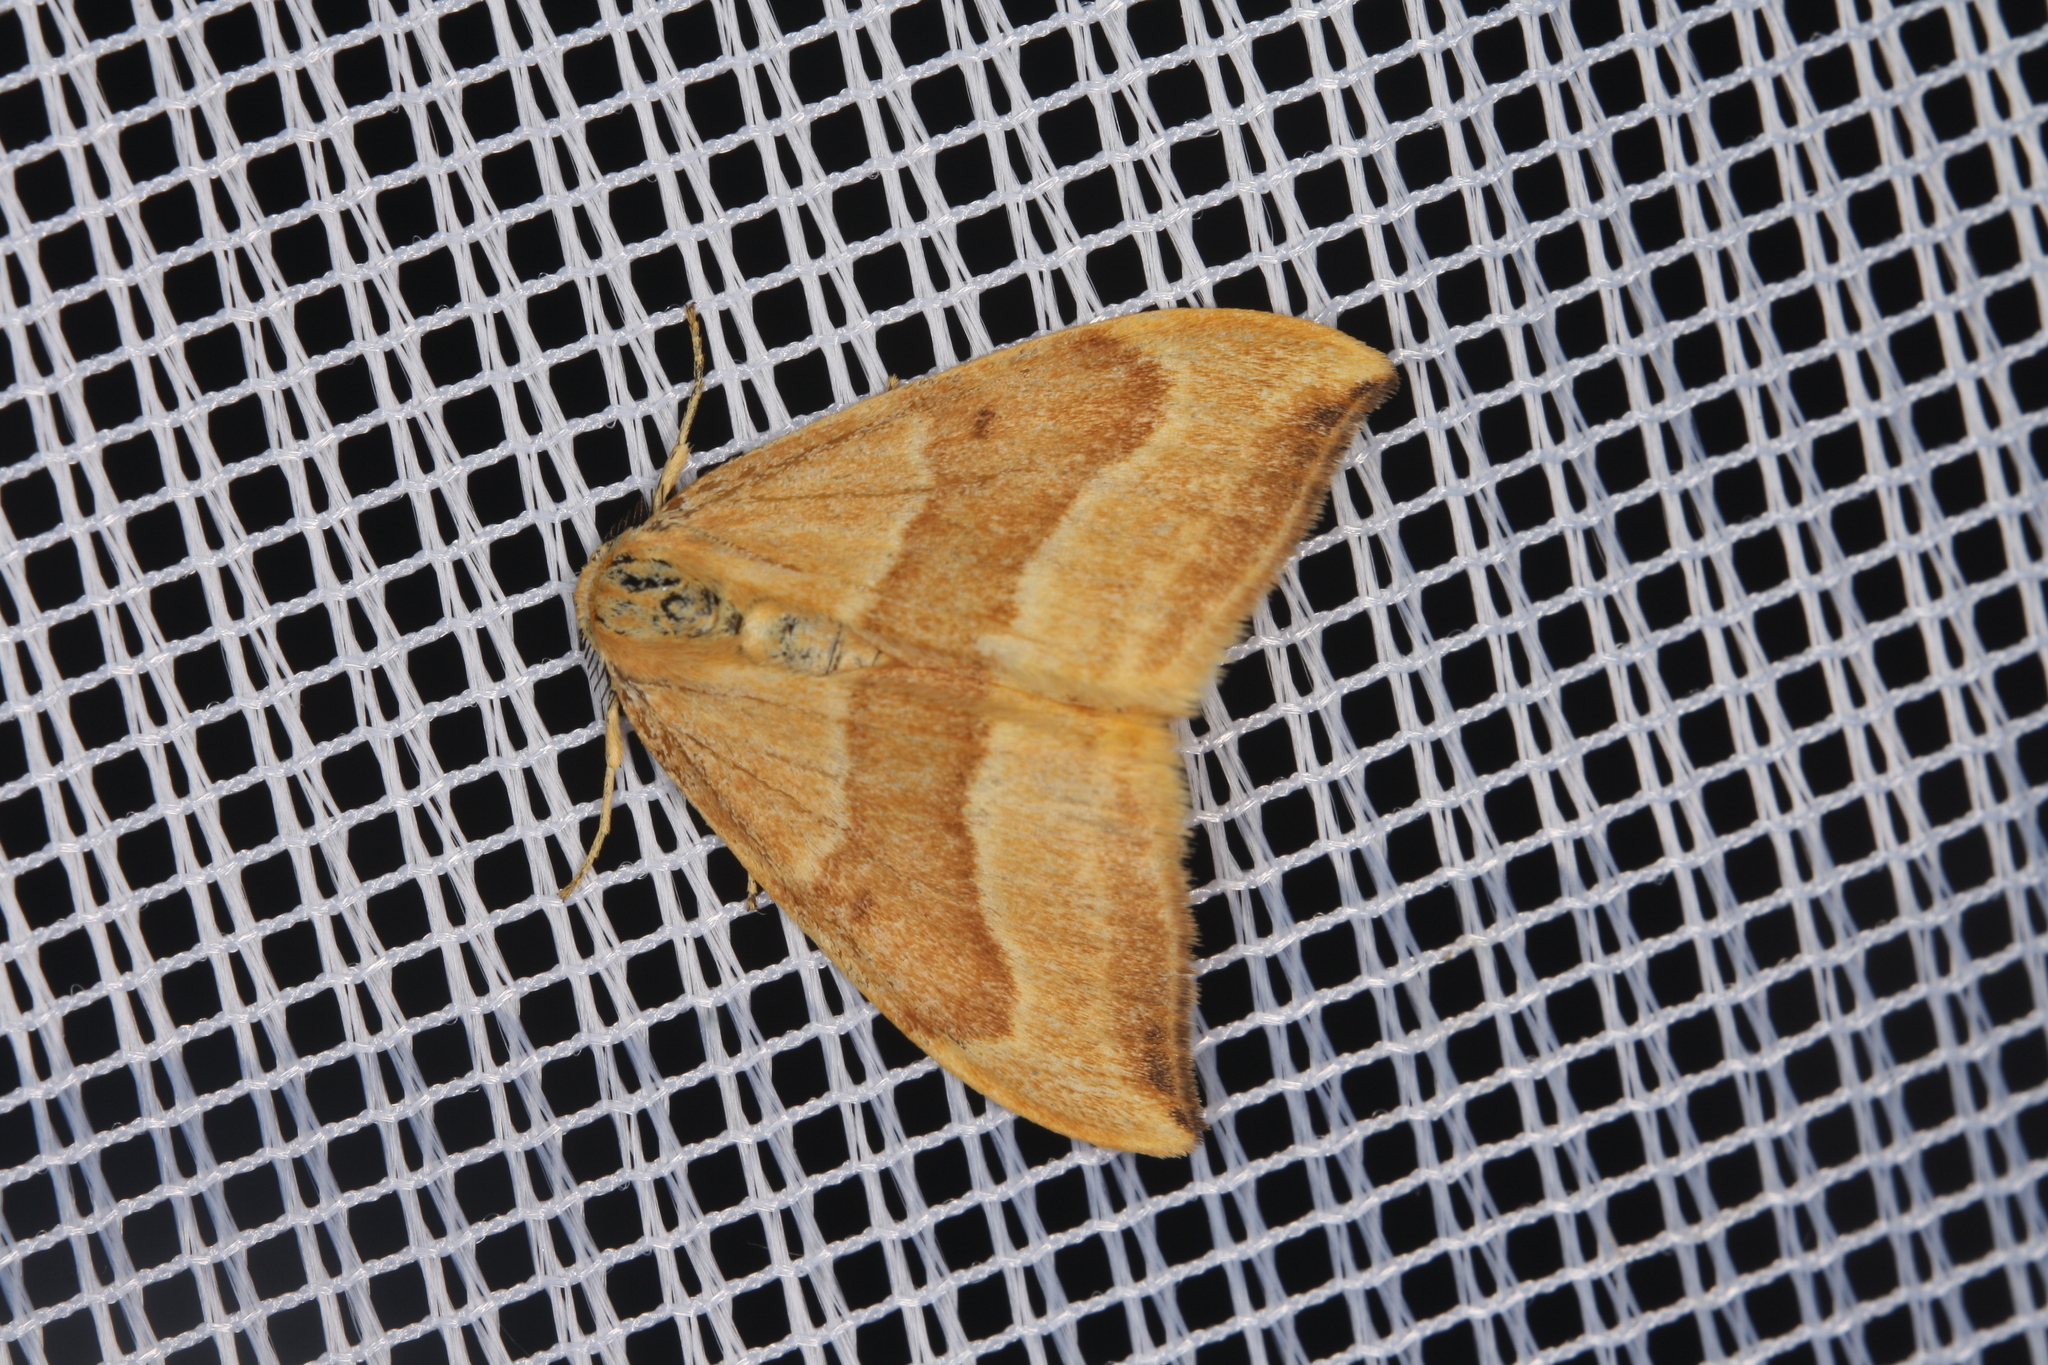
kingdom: Animalia
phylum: Arthropoda
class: Insecta
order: Lepidoptera
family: Drepanidae
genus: Watsonalla
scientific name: Watsonalla cultraria
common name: Barred hook-tip
